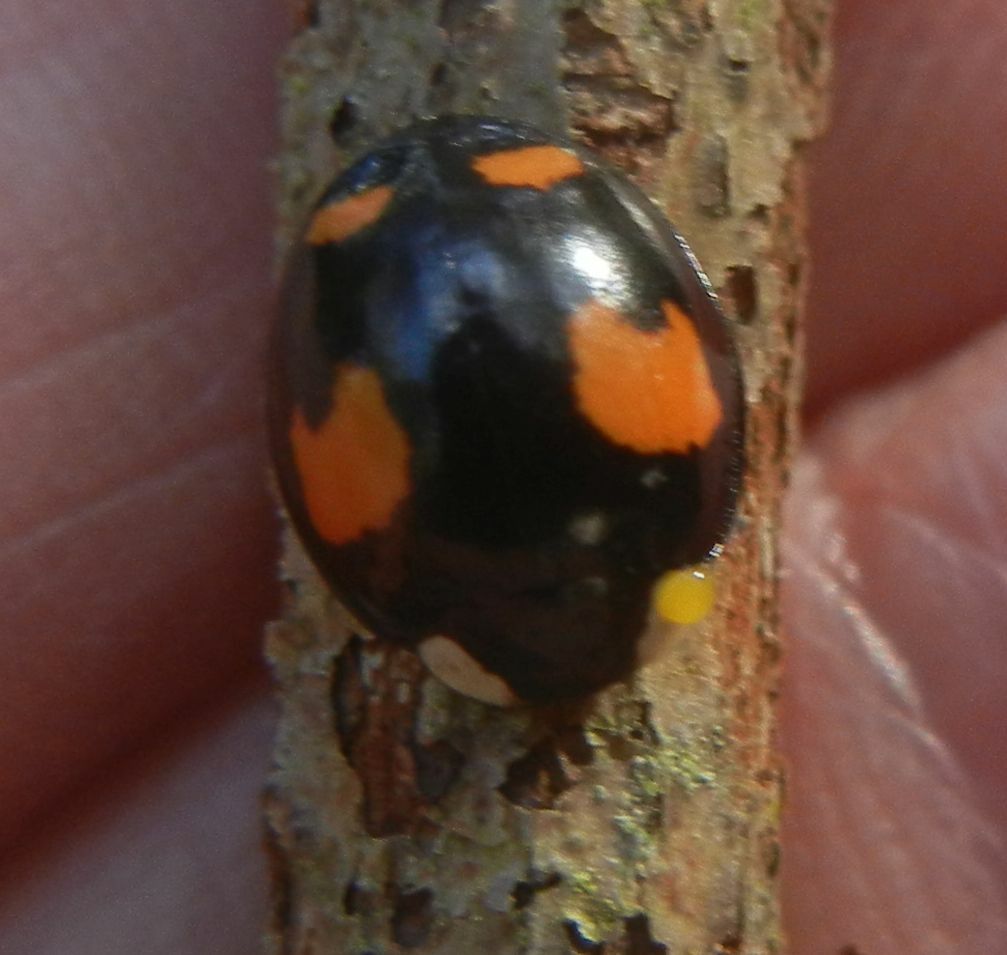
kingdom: Animalia
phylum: Arthropoda
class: Insecta
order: Coleoptera
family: Coccinellidae
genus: Harmonia
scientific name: Harmonia axyridis
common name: Harlequin ladybird
